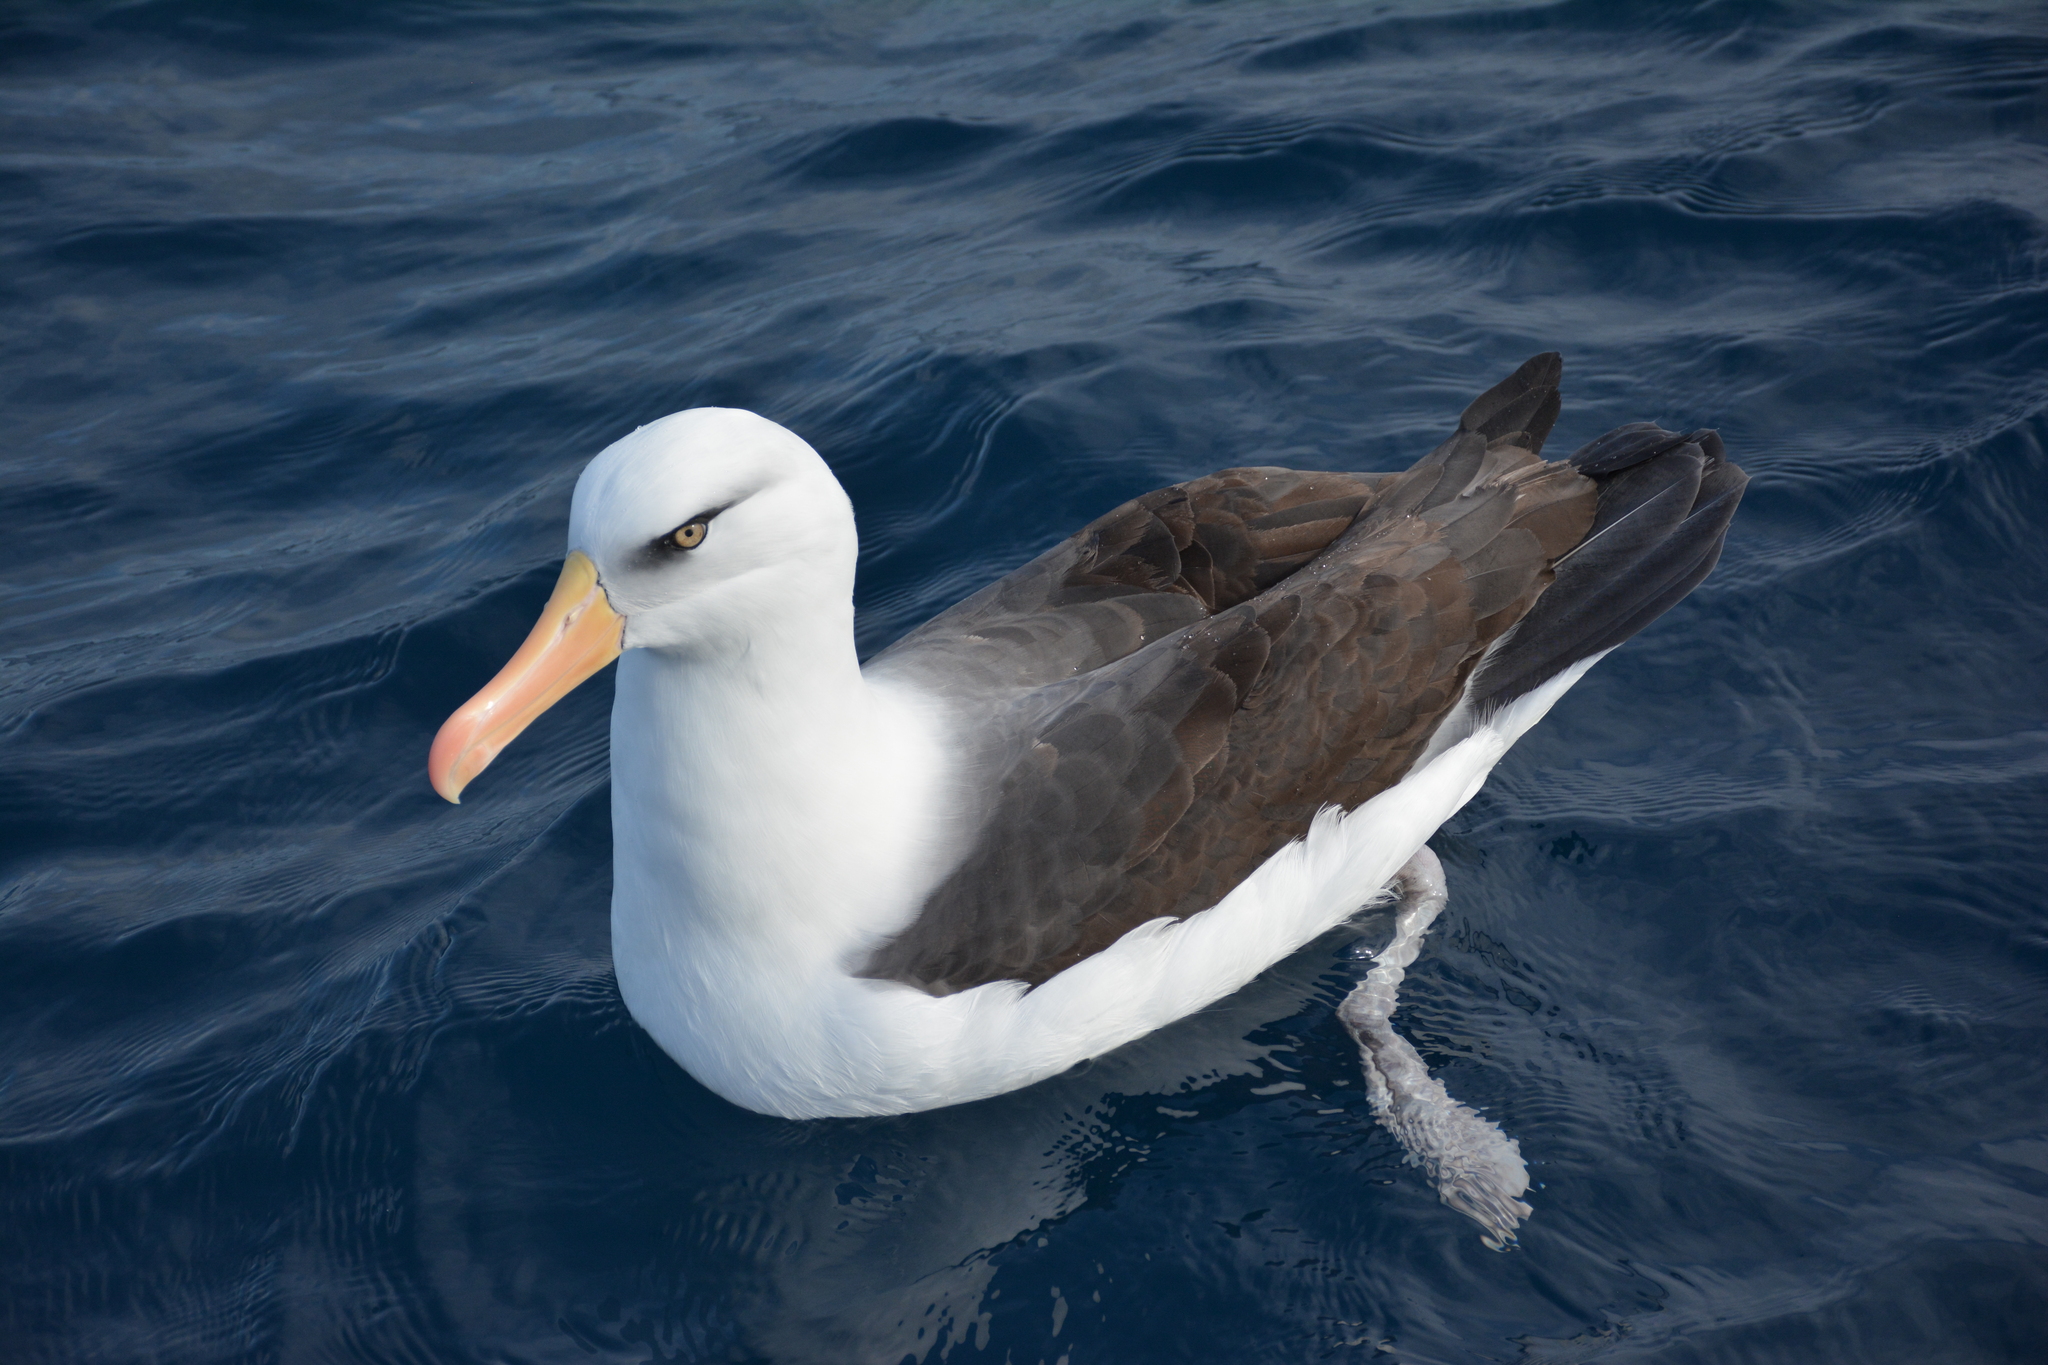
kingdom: Animalia
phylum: Chordata
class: Aves
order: Procellariiformes
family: Diomedeidae
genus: Thalassarche
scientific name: Thalassarche melanophris
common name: Black-browed albatross
